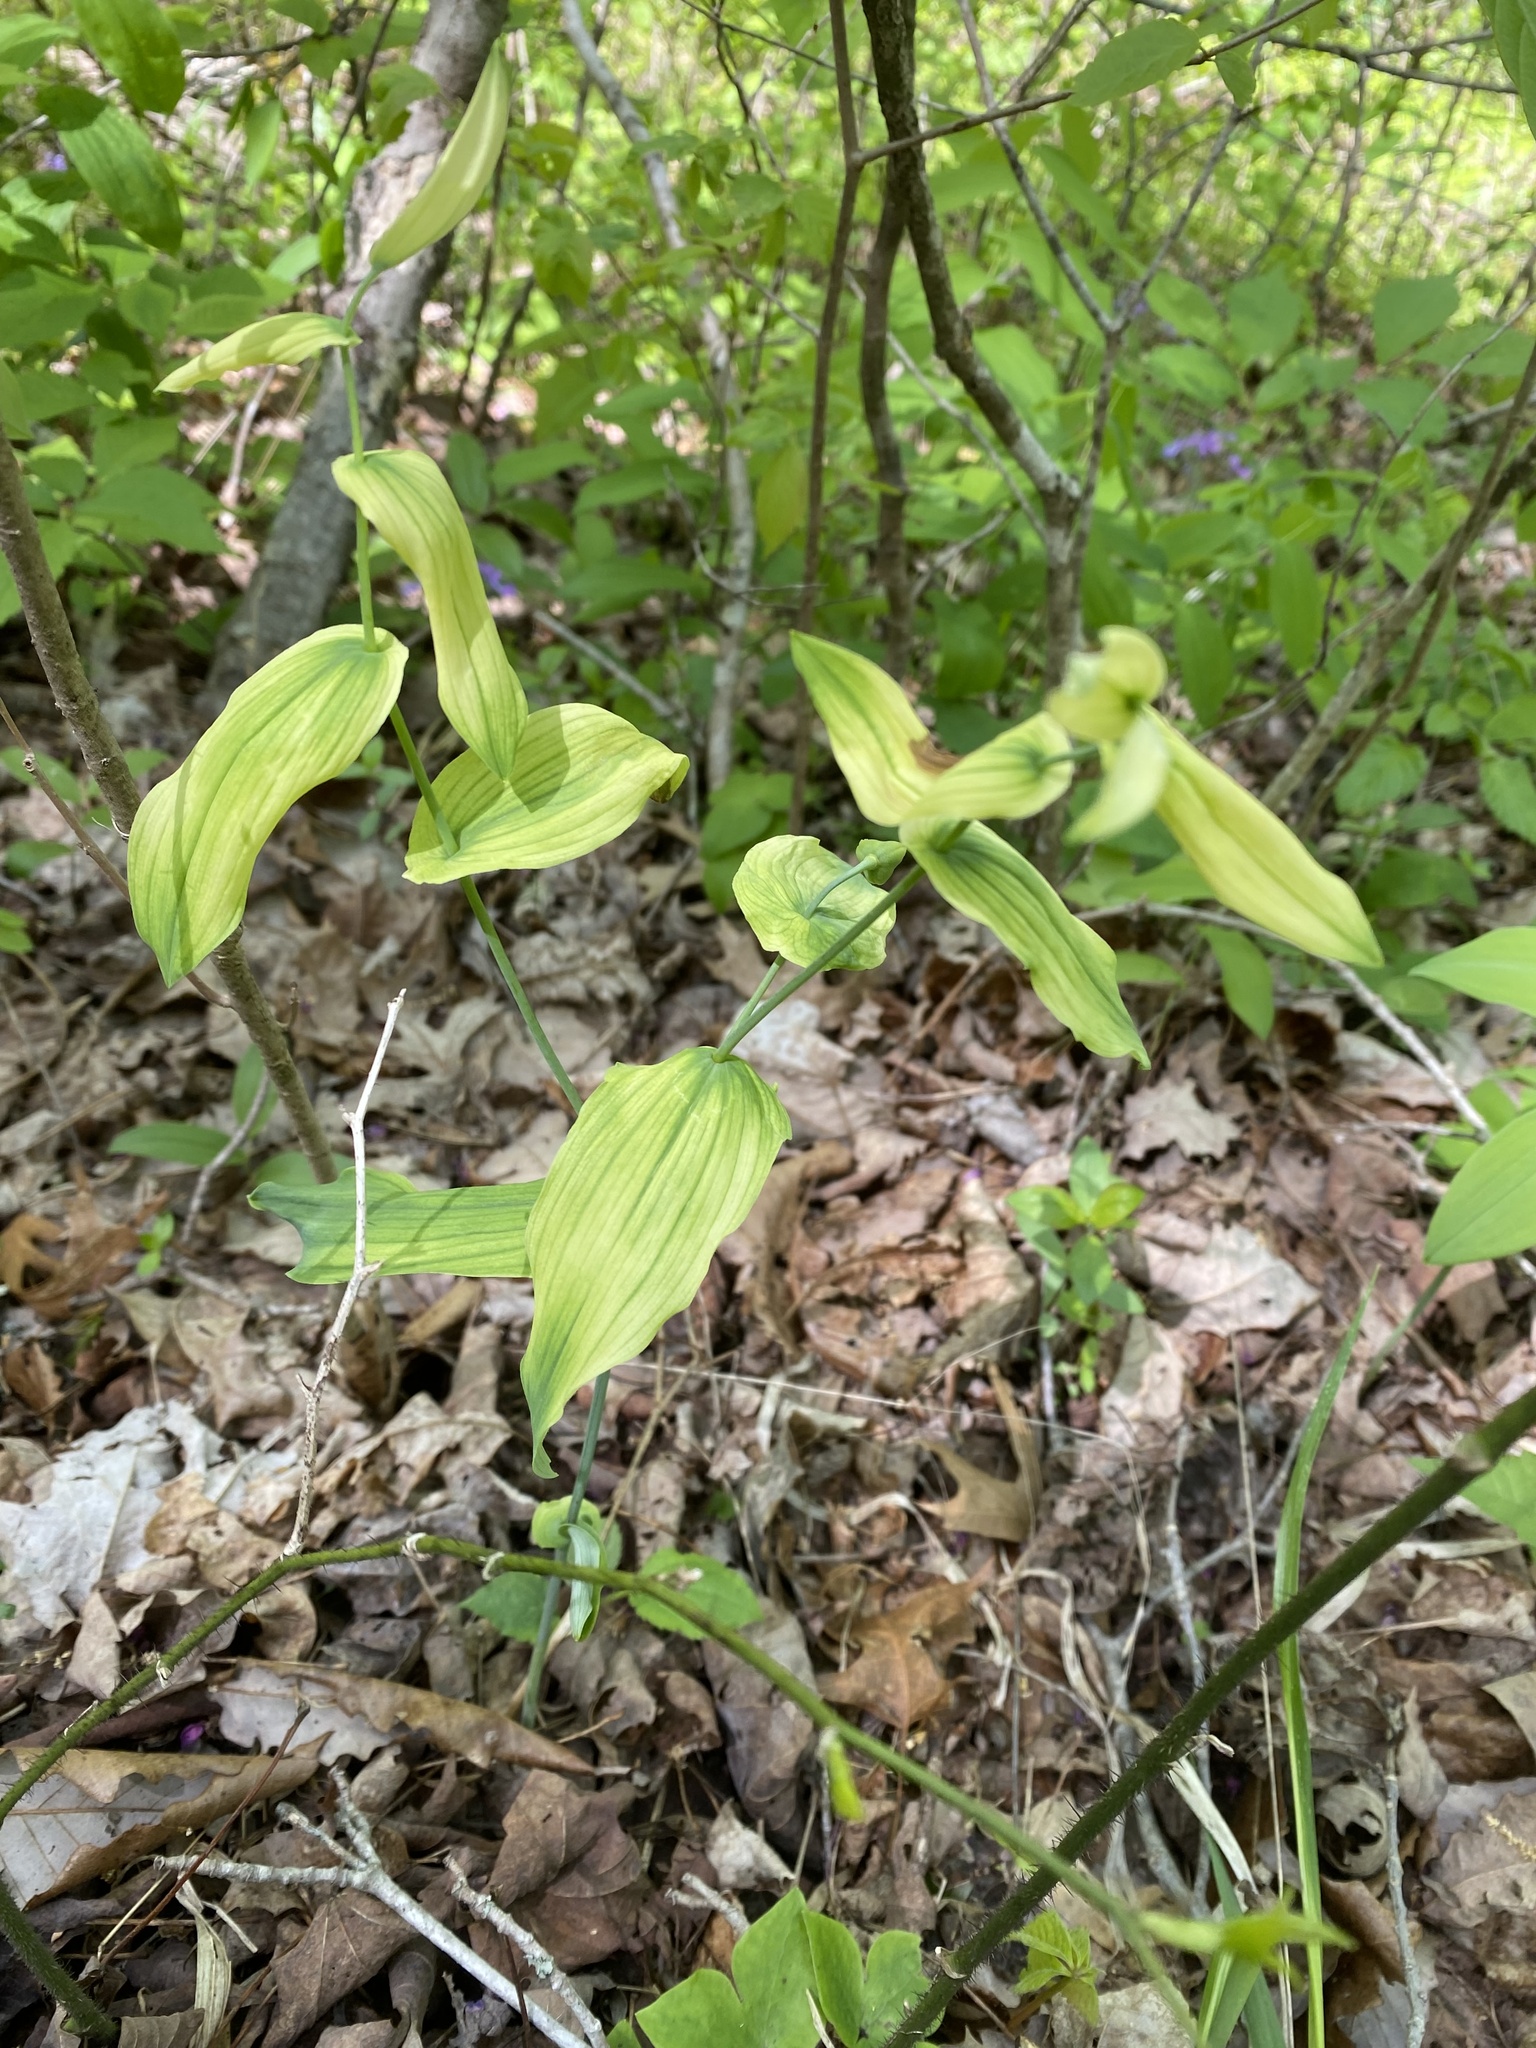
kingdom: Plantae
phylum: Tracheophyta
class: Liliopsida
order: Liliales
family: Colchicaceae
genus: Uvularia
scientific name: Uvularia grandiflora
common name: Bellwort
